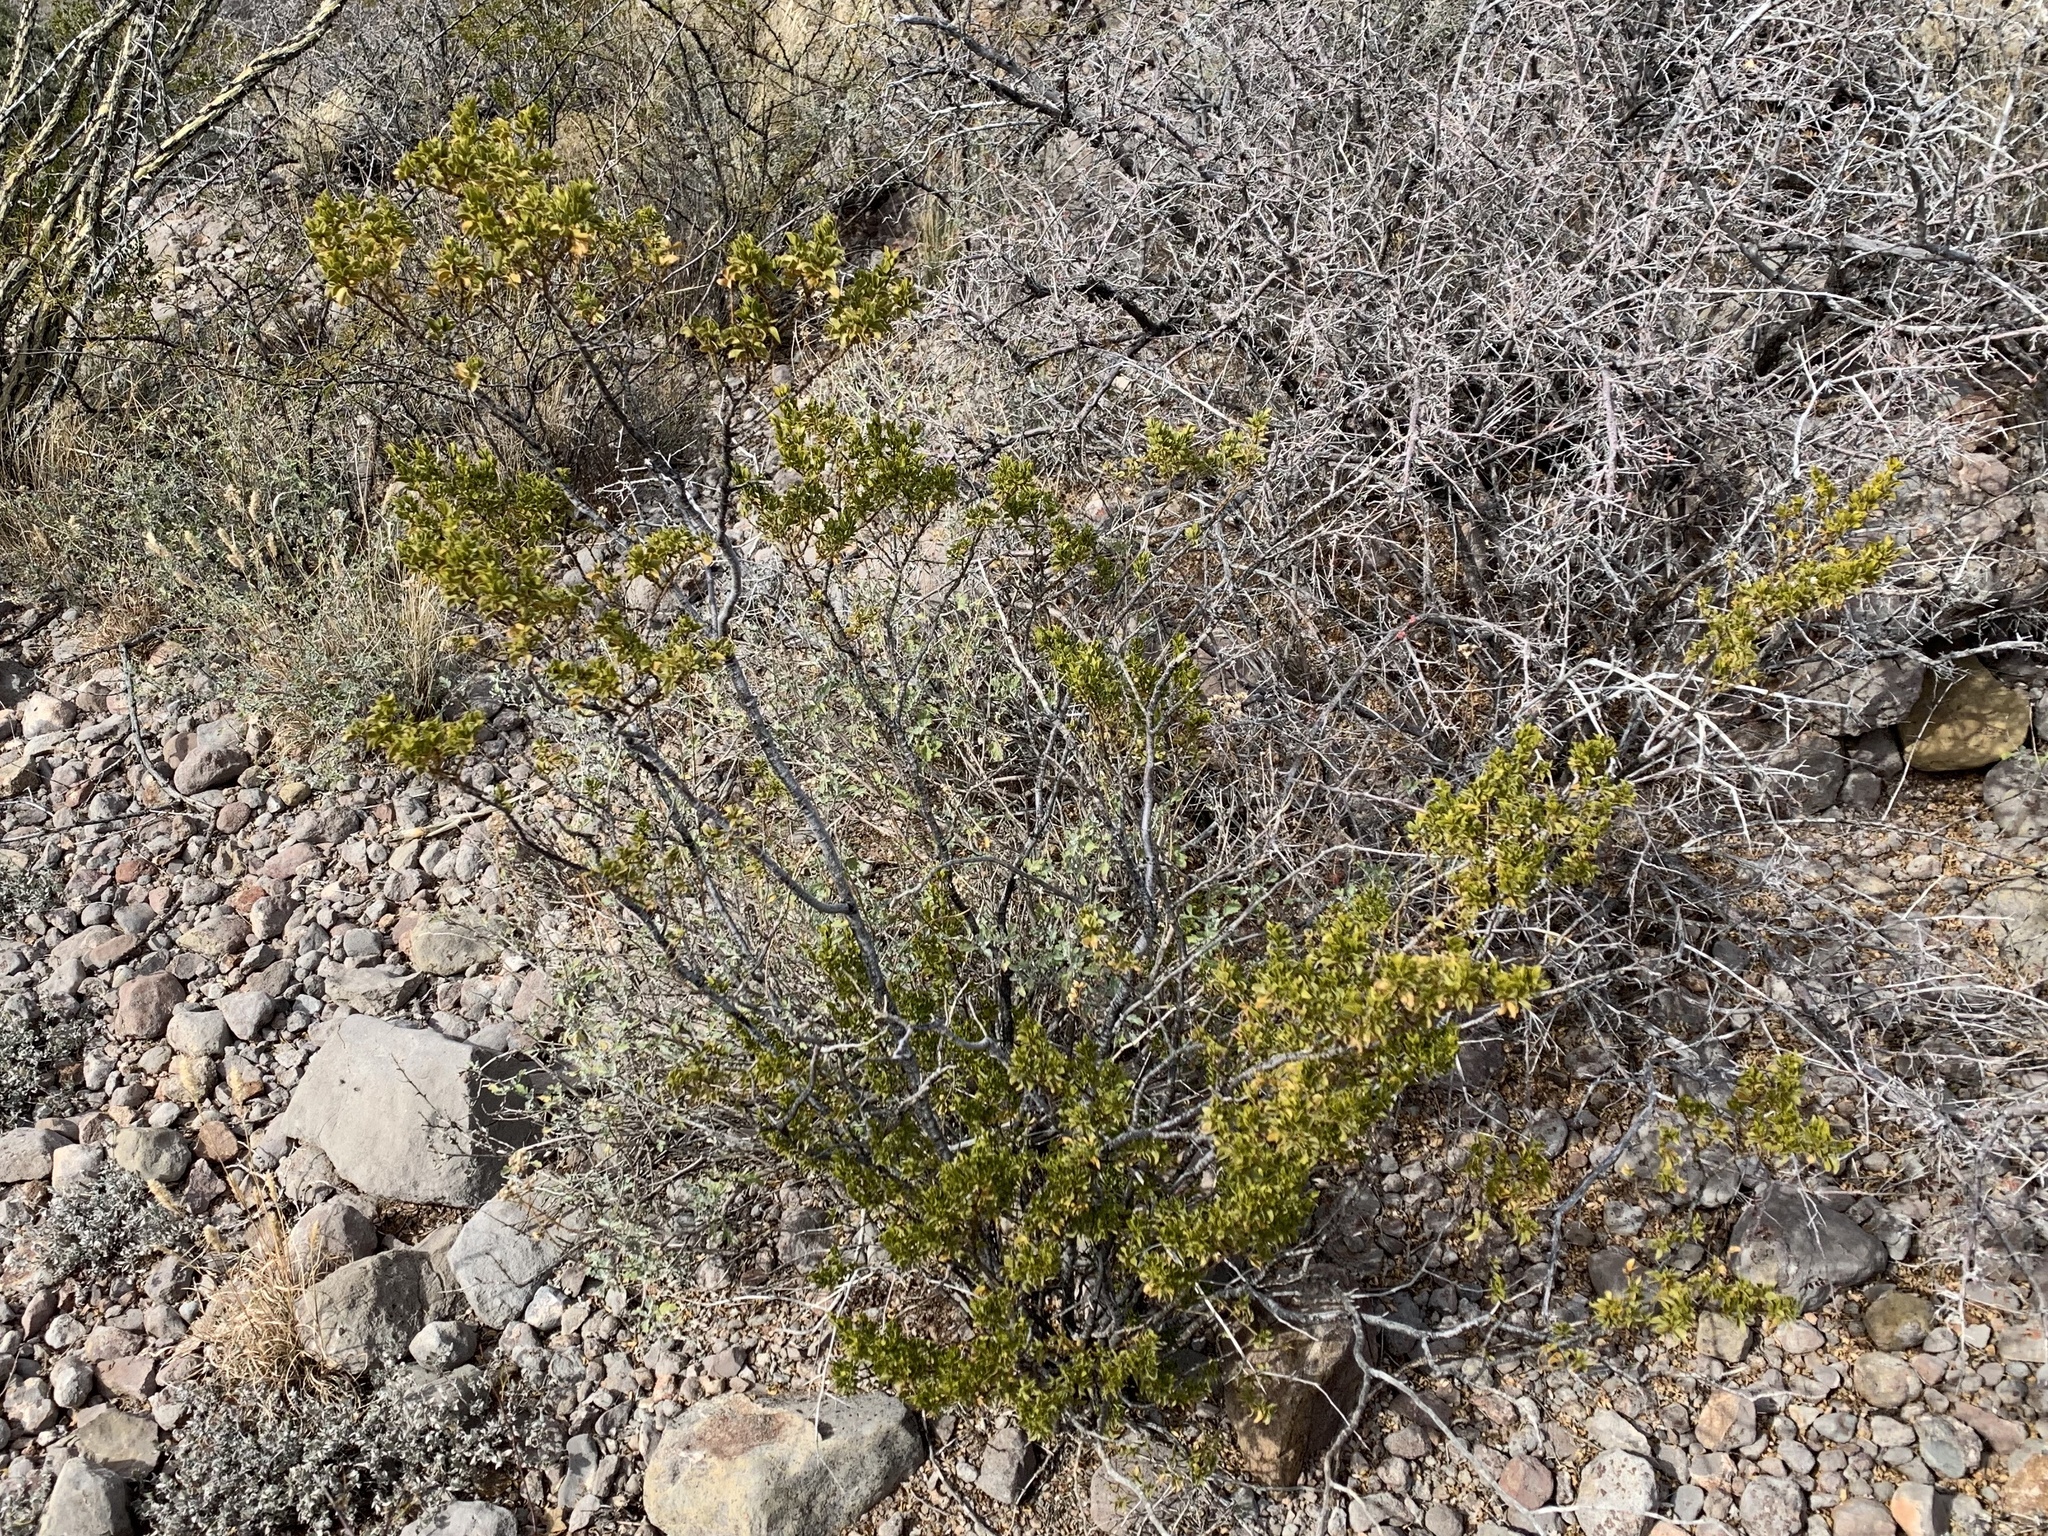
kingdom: Plantae
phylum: Tracheophyta
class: Magnoliopsida
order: Zygophyllales
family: Zygophyllaceae
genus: Larrea
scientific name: Larrea tridentata
